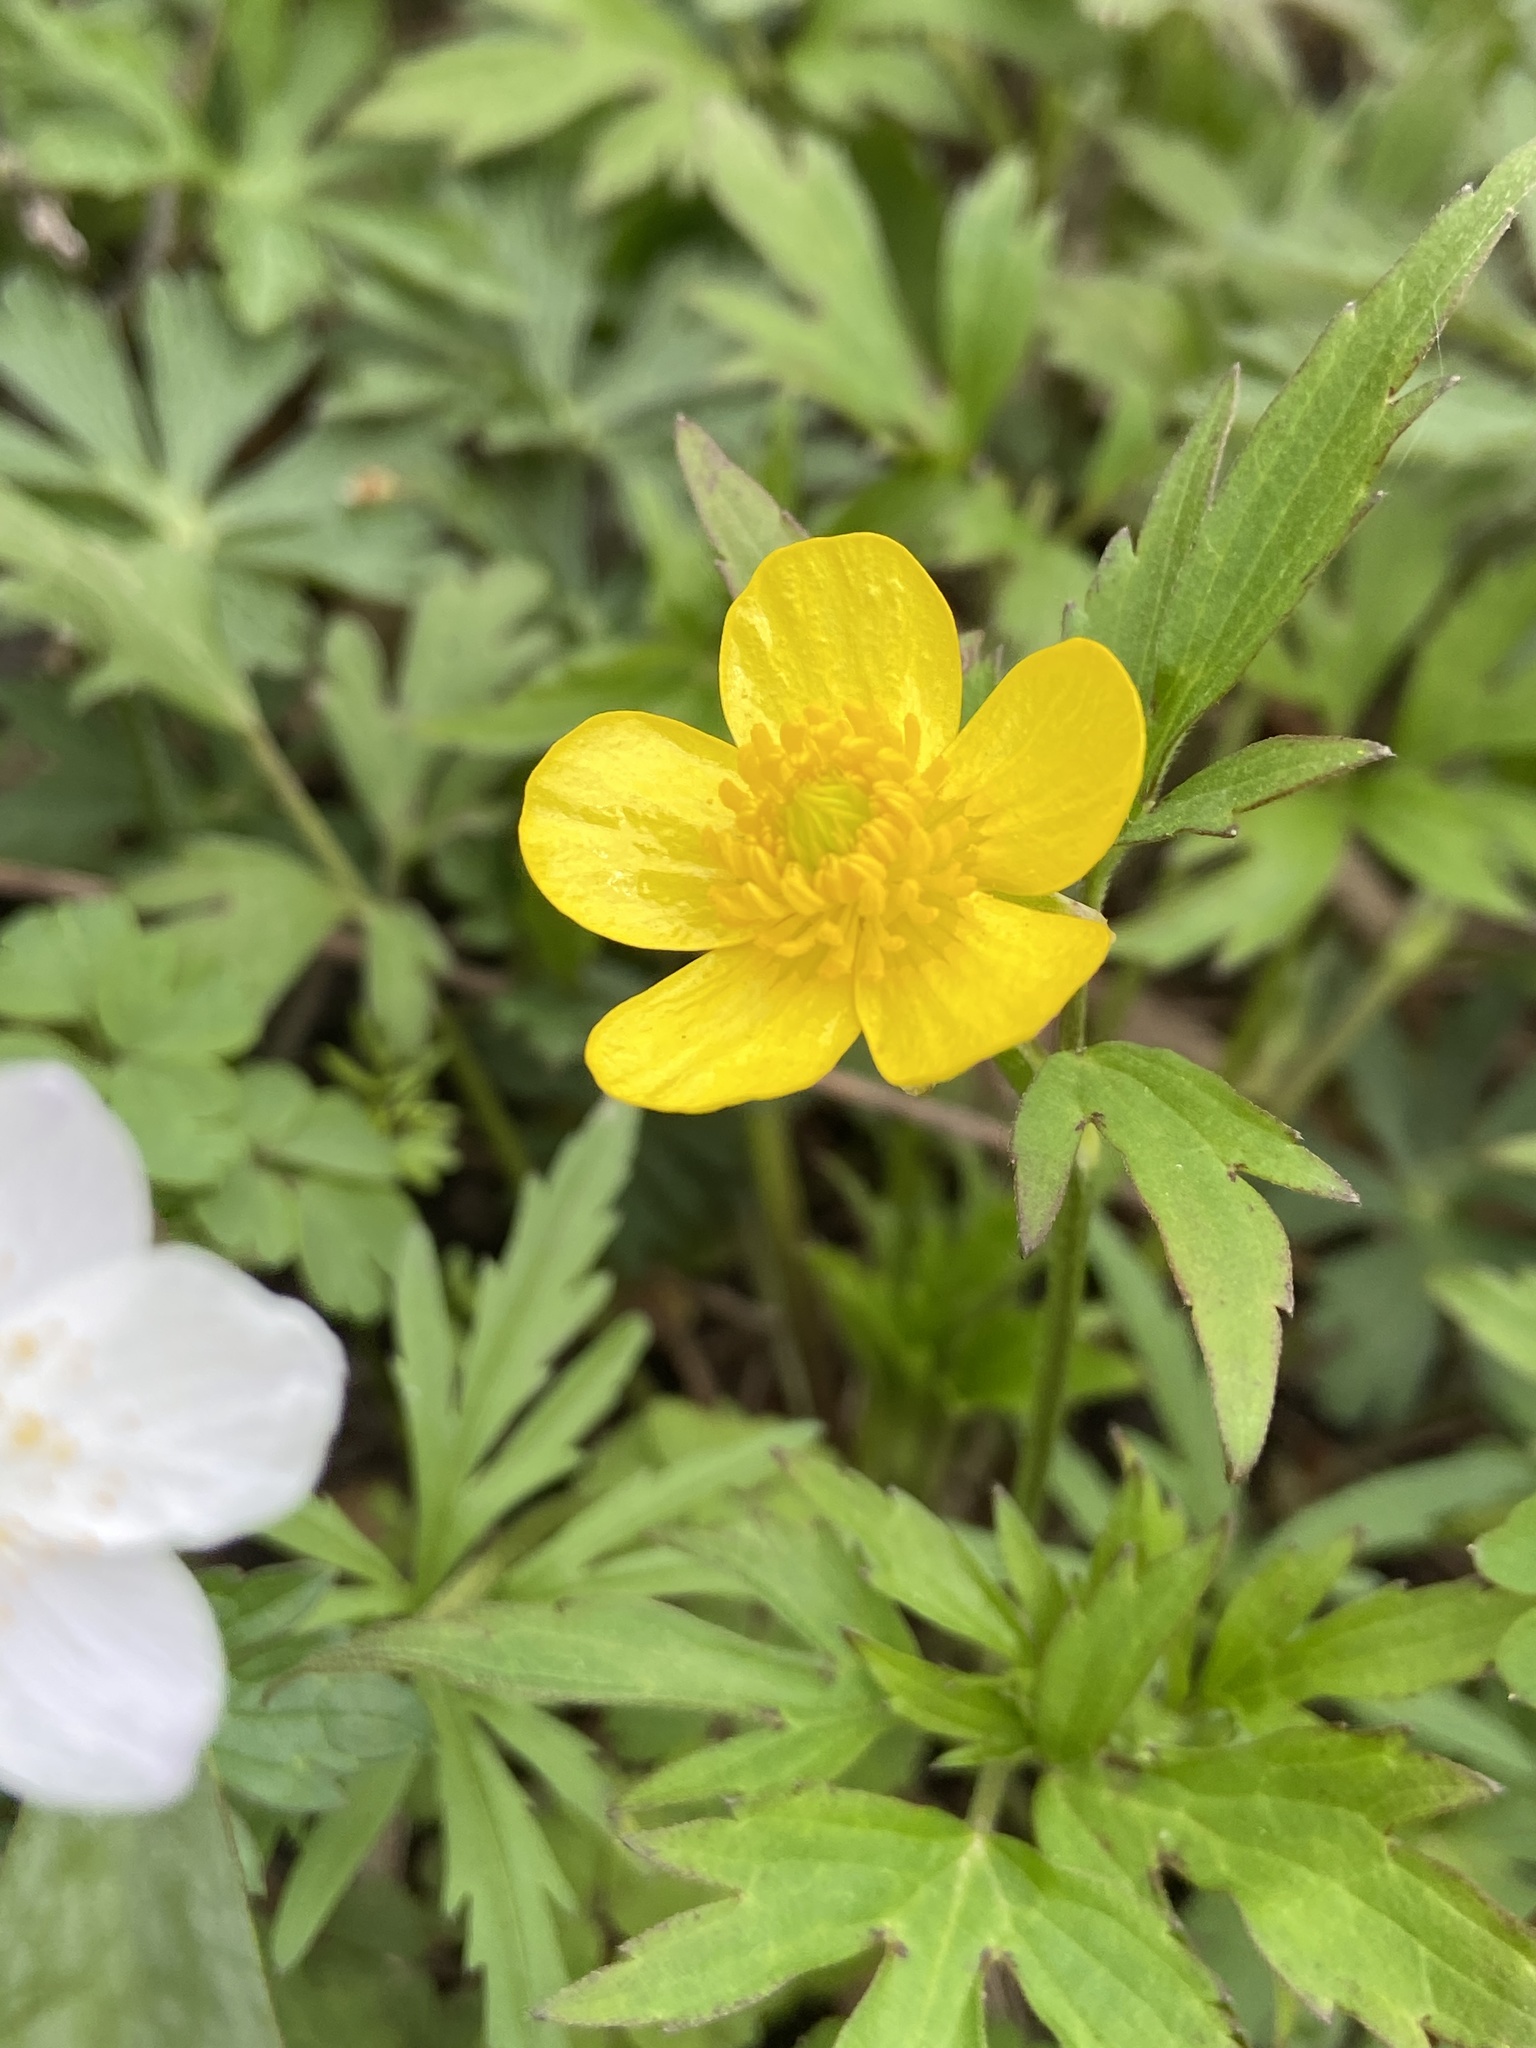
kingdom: Plantae
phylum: Tracheophyta
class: Magnoliopsida
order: Ranunculales
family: Ranunculaceae
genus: Ranunculus
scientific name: Ranunculus hispidus
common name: Bristly buttercup
